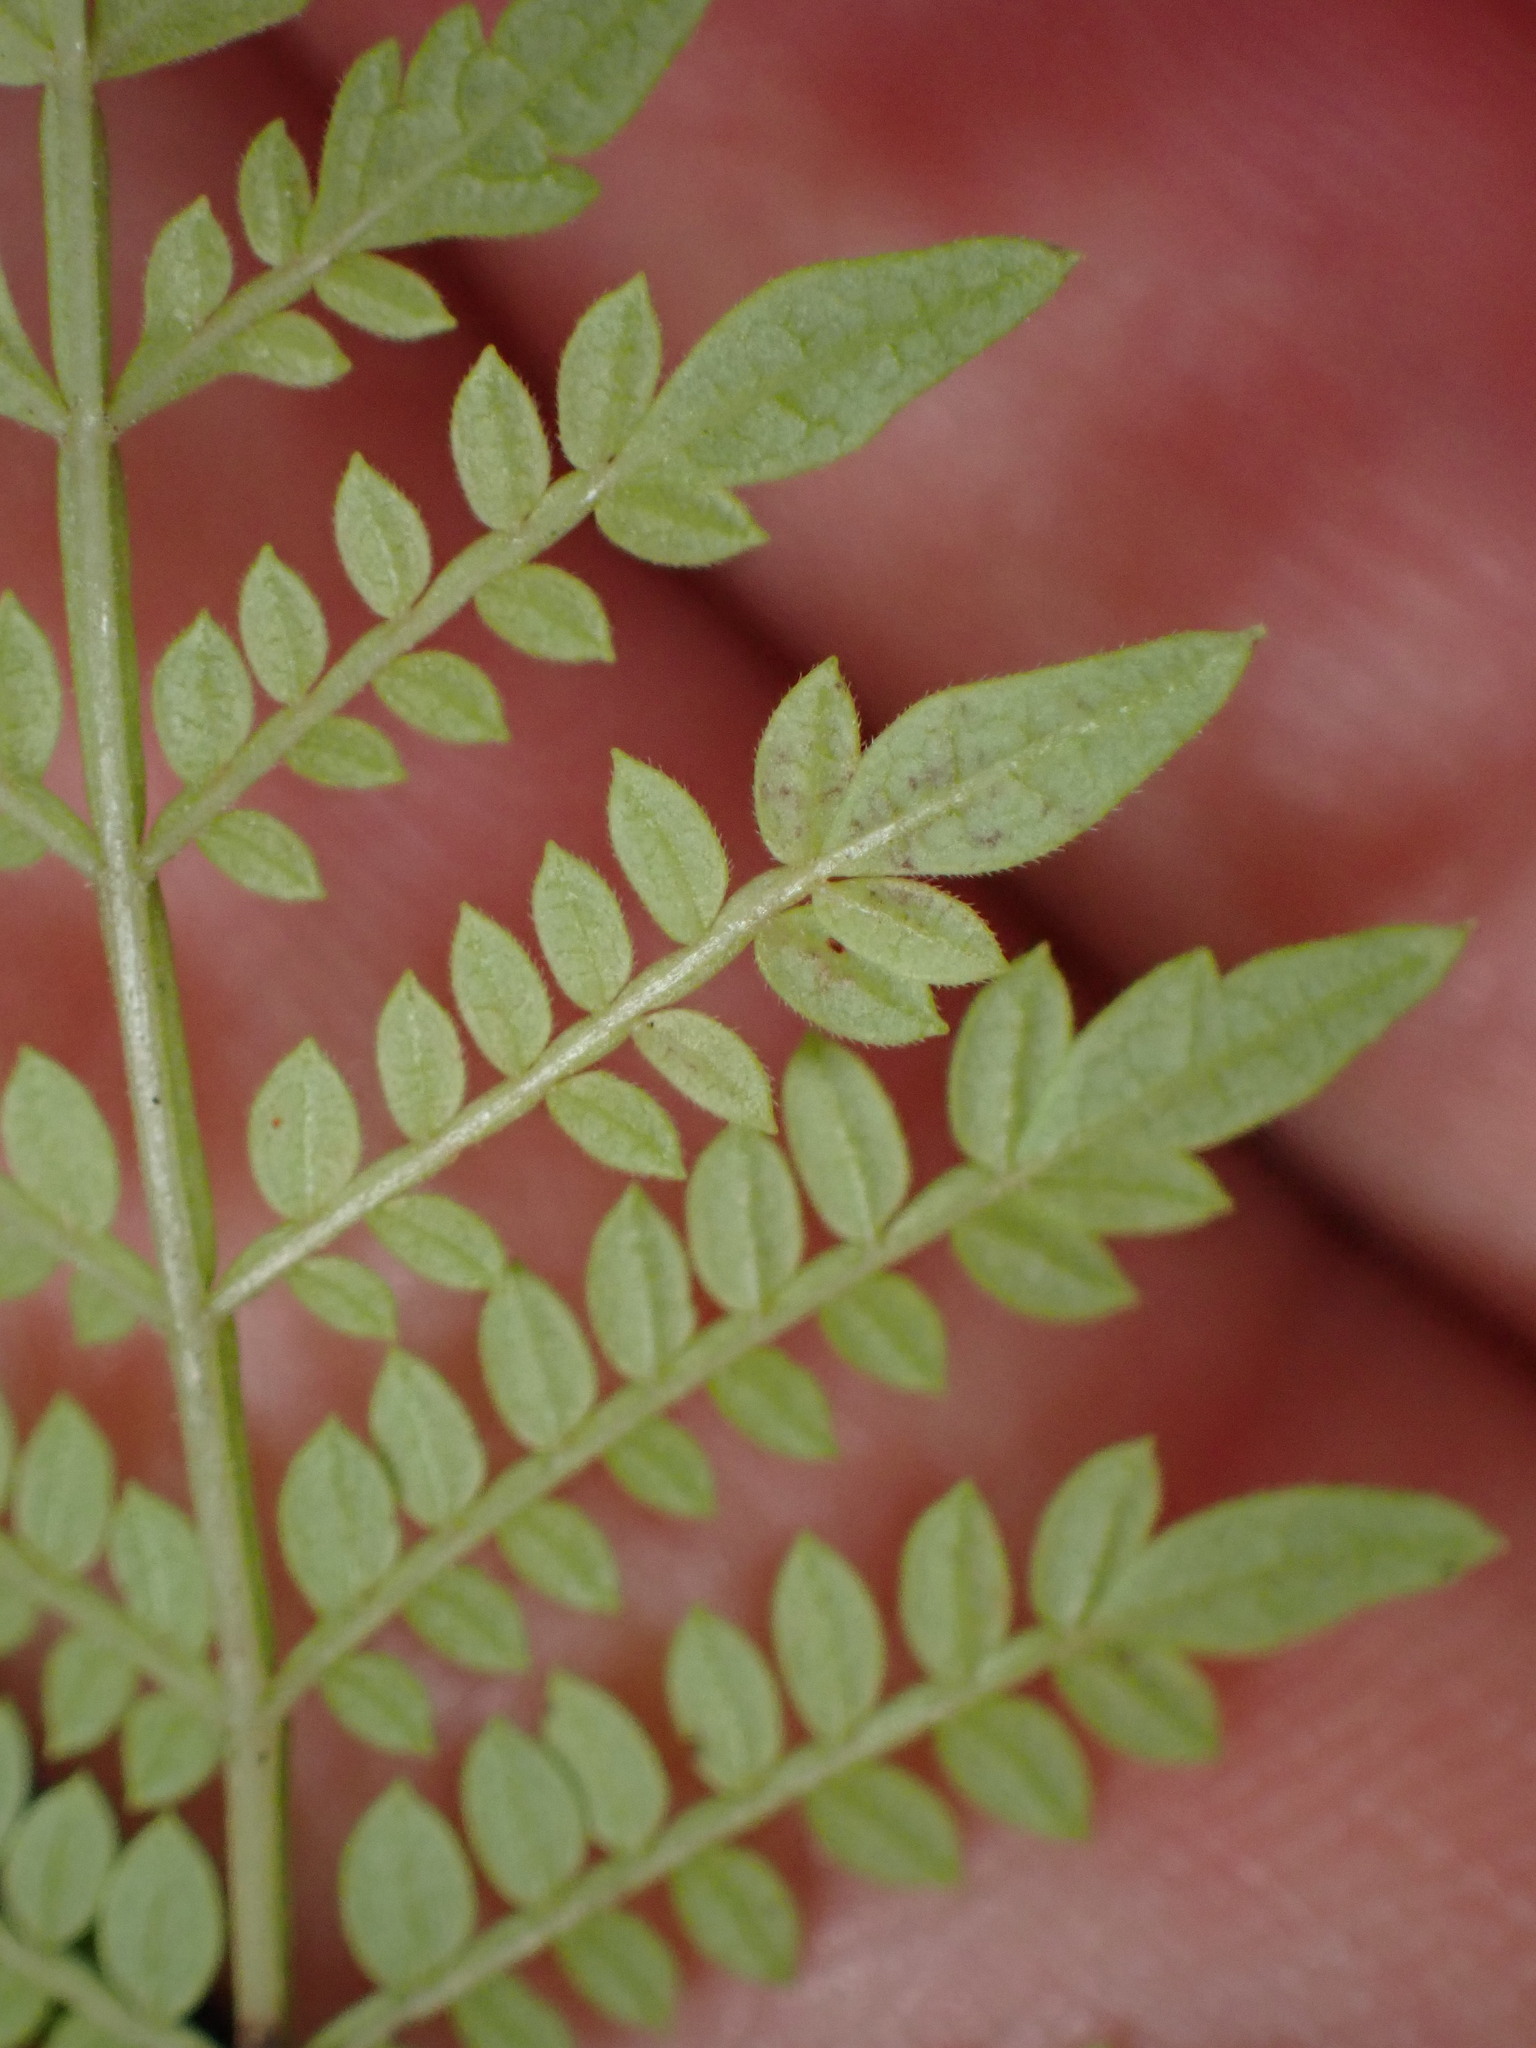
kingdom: Plantae
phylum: Tracheophyta
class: Magnoliopsida
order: Lamiales
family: Bignoniaceae
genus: Jacaranda
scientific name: Jacaranda mimosifolia
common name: Black poui
